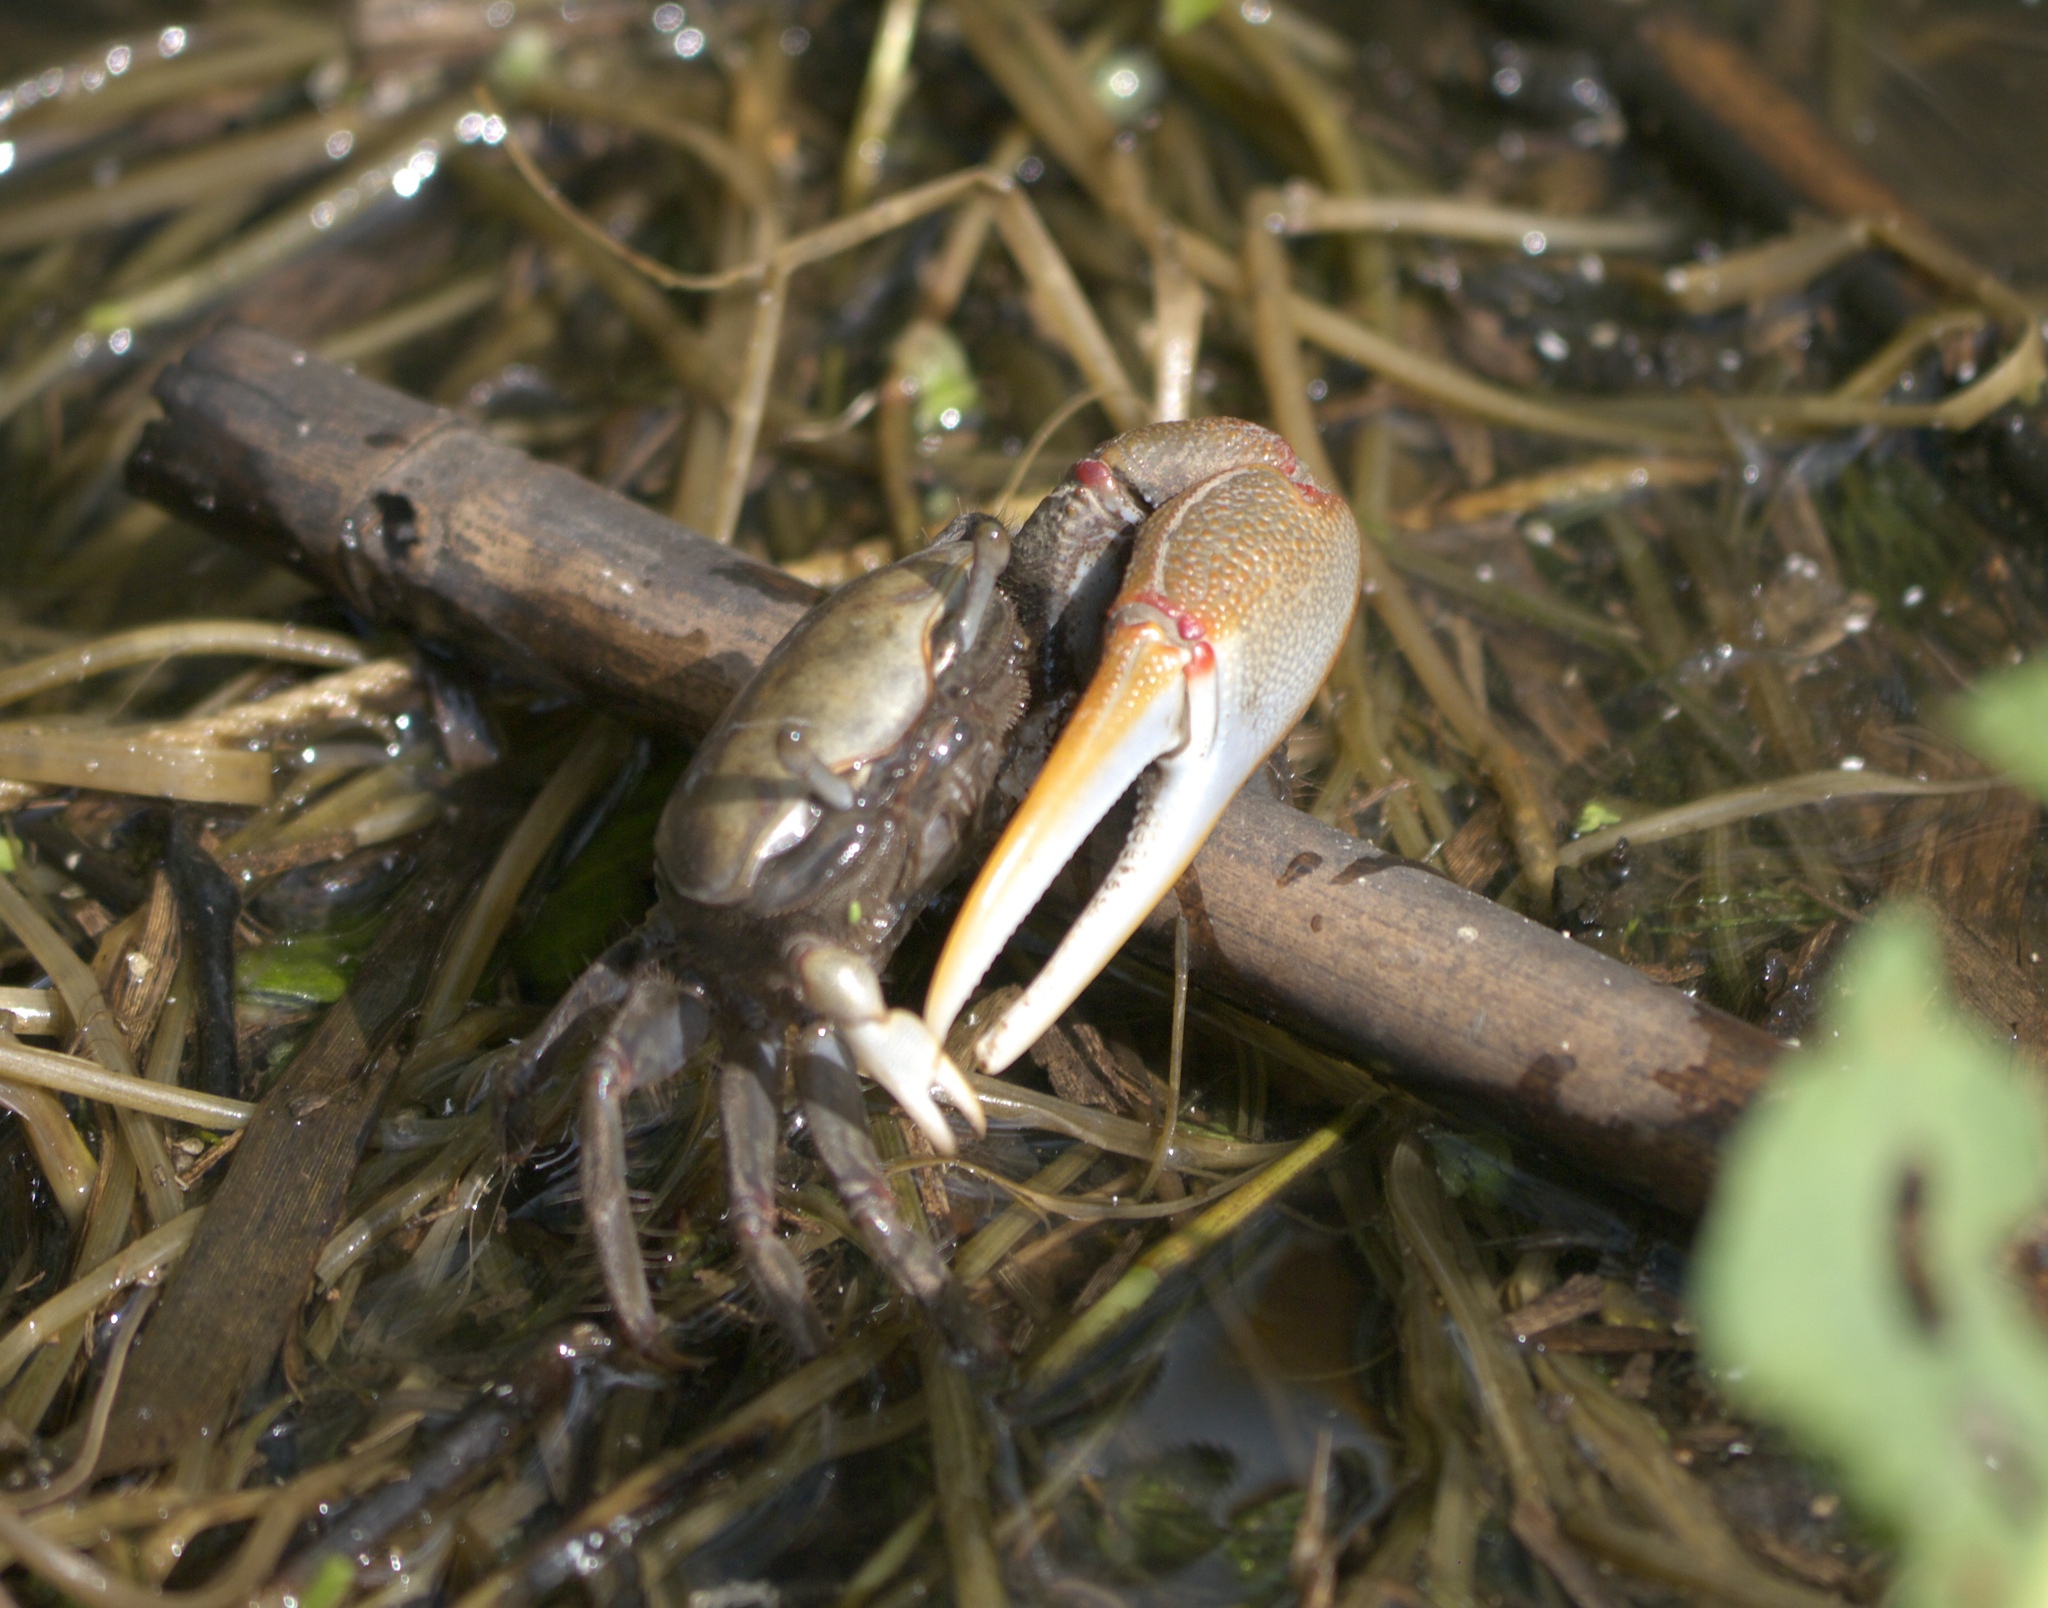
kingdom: Animalia
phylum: Arthropoda
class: Malacostraca
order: Decapoda
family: Ocypodidae
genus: Minuca
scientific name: Minuca minax
